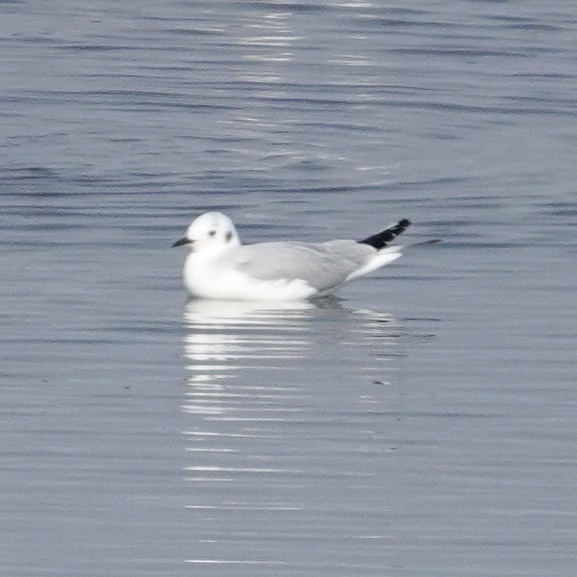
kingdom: Animalia
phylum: Chordata
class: Aves
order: Charadriiformes
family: Laridae
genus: Chroicocephalus
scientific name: Chroicocephalus philadelphia
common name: Bonaparte's gull
